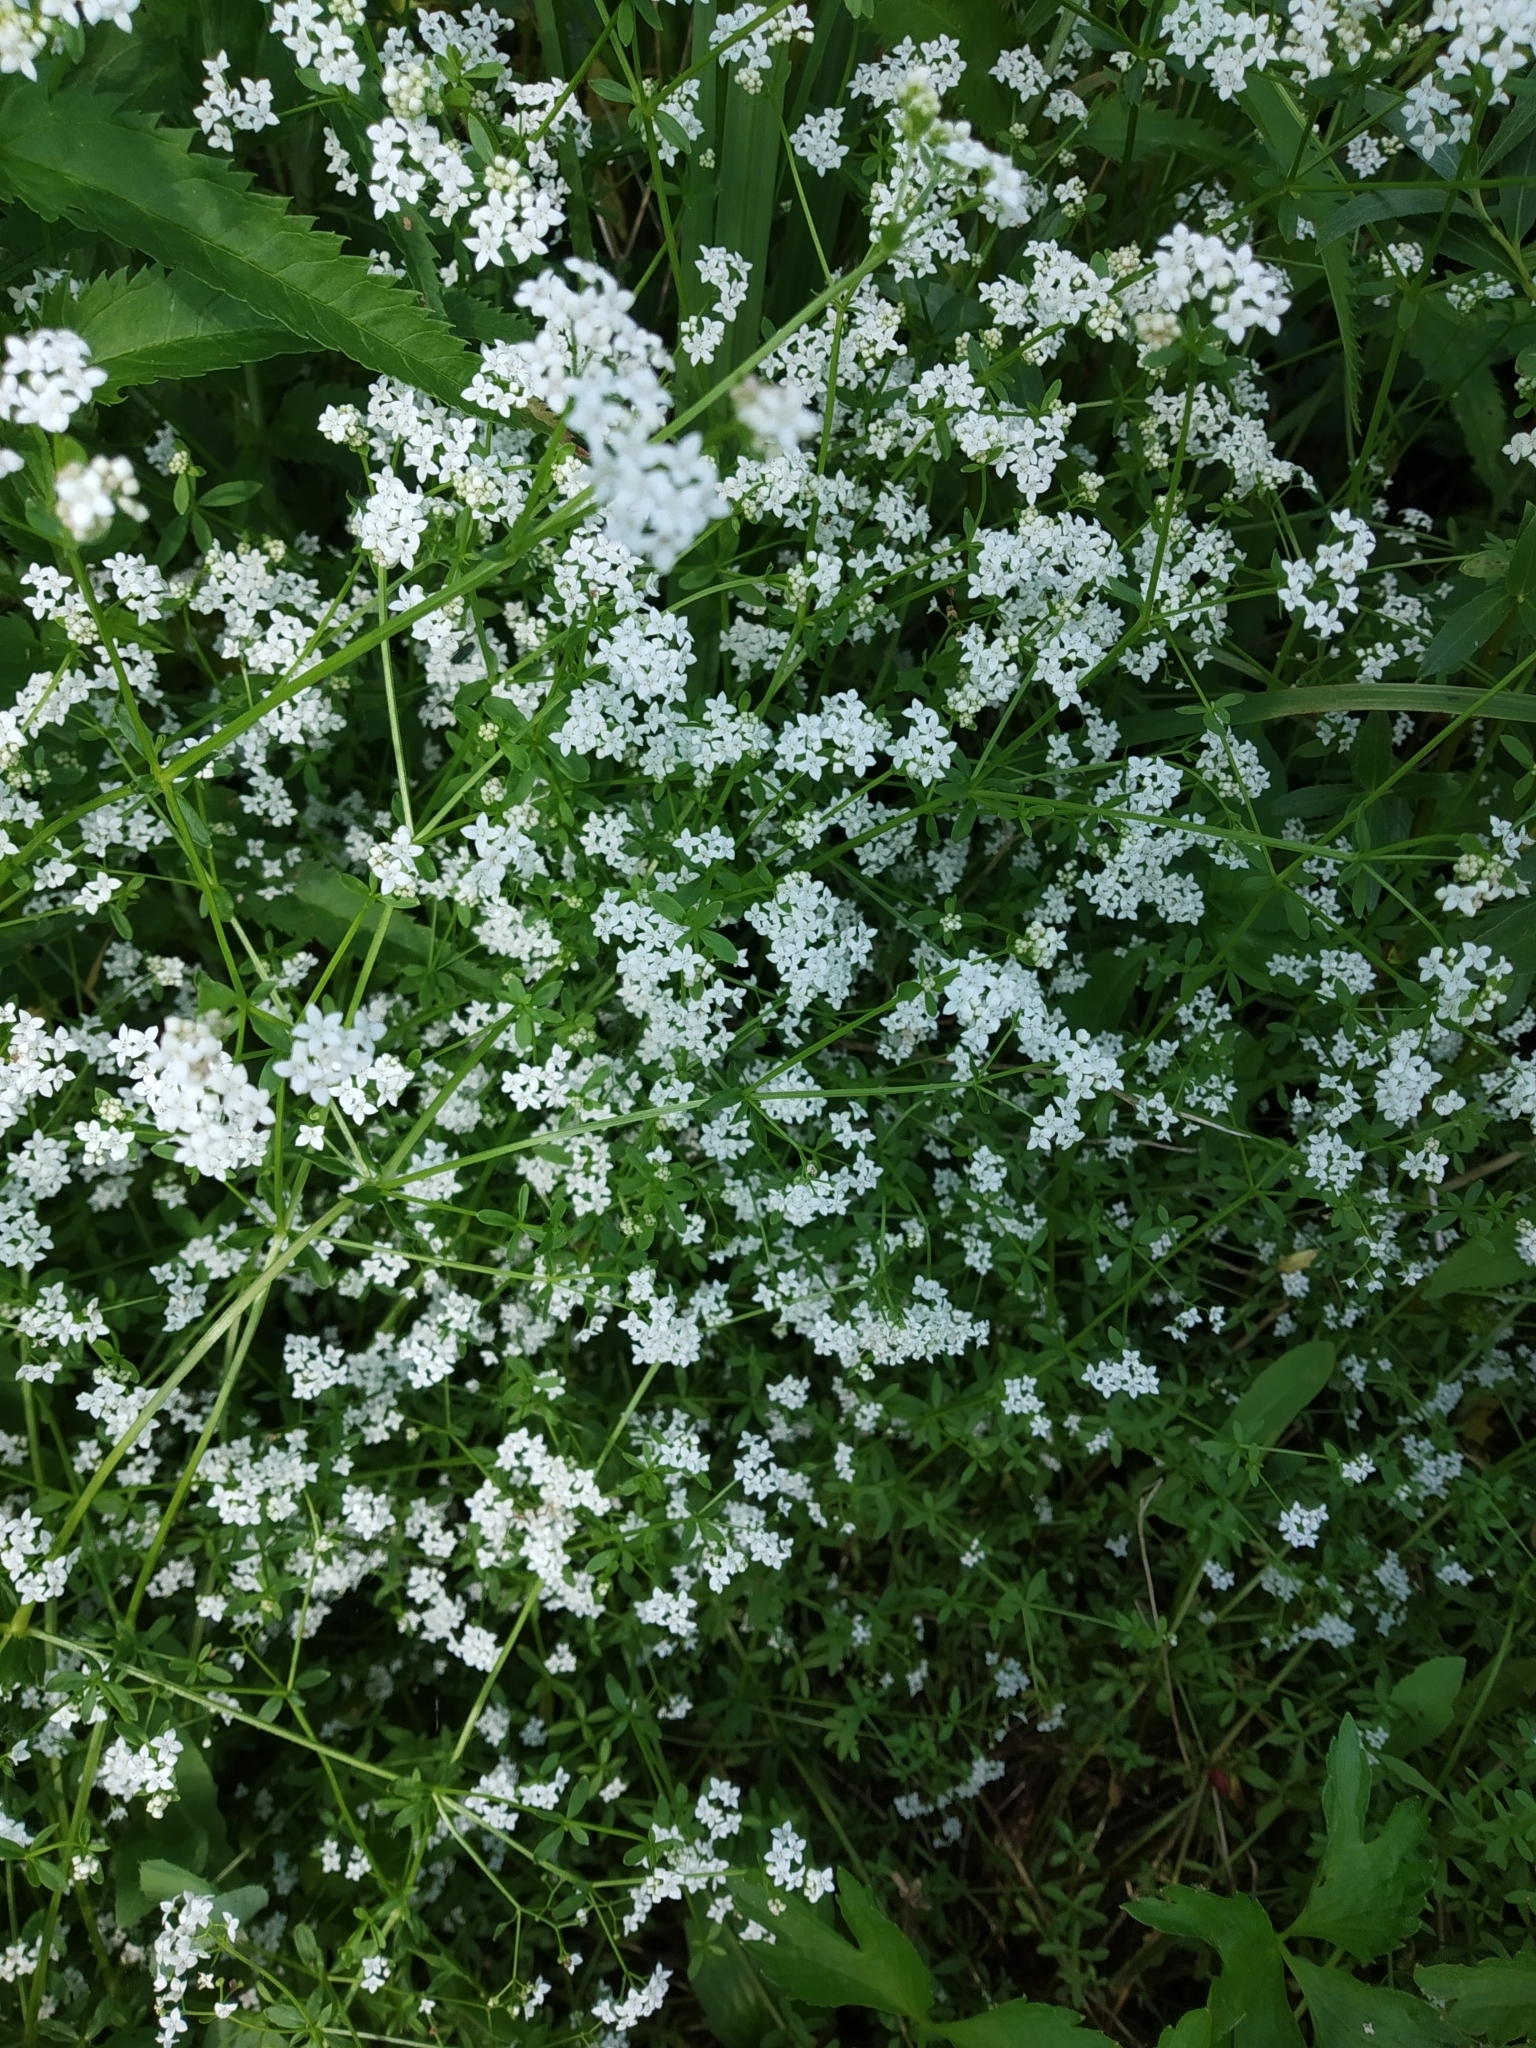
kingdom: Plantae
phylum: Tracheophyta
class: Magnoliopsida
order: Gentianales
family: Rubiaceae
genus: Galium
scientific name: Galium palustre
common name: Common marsh-bedstraw
